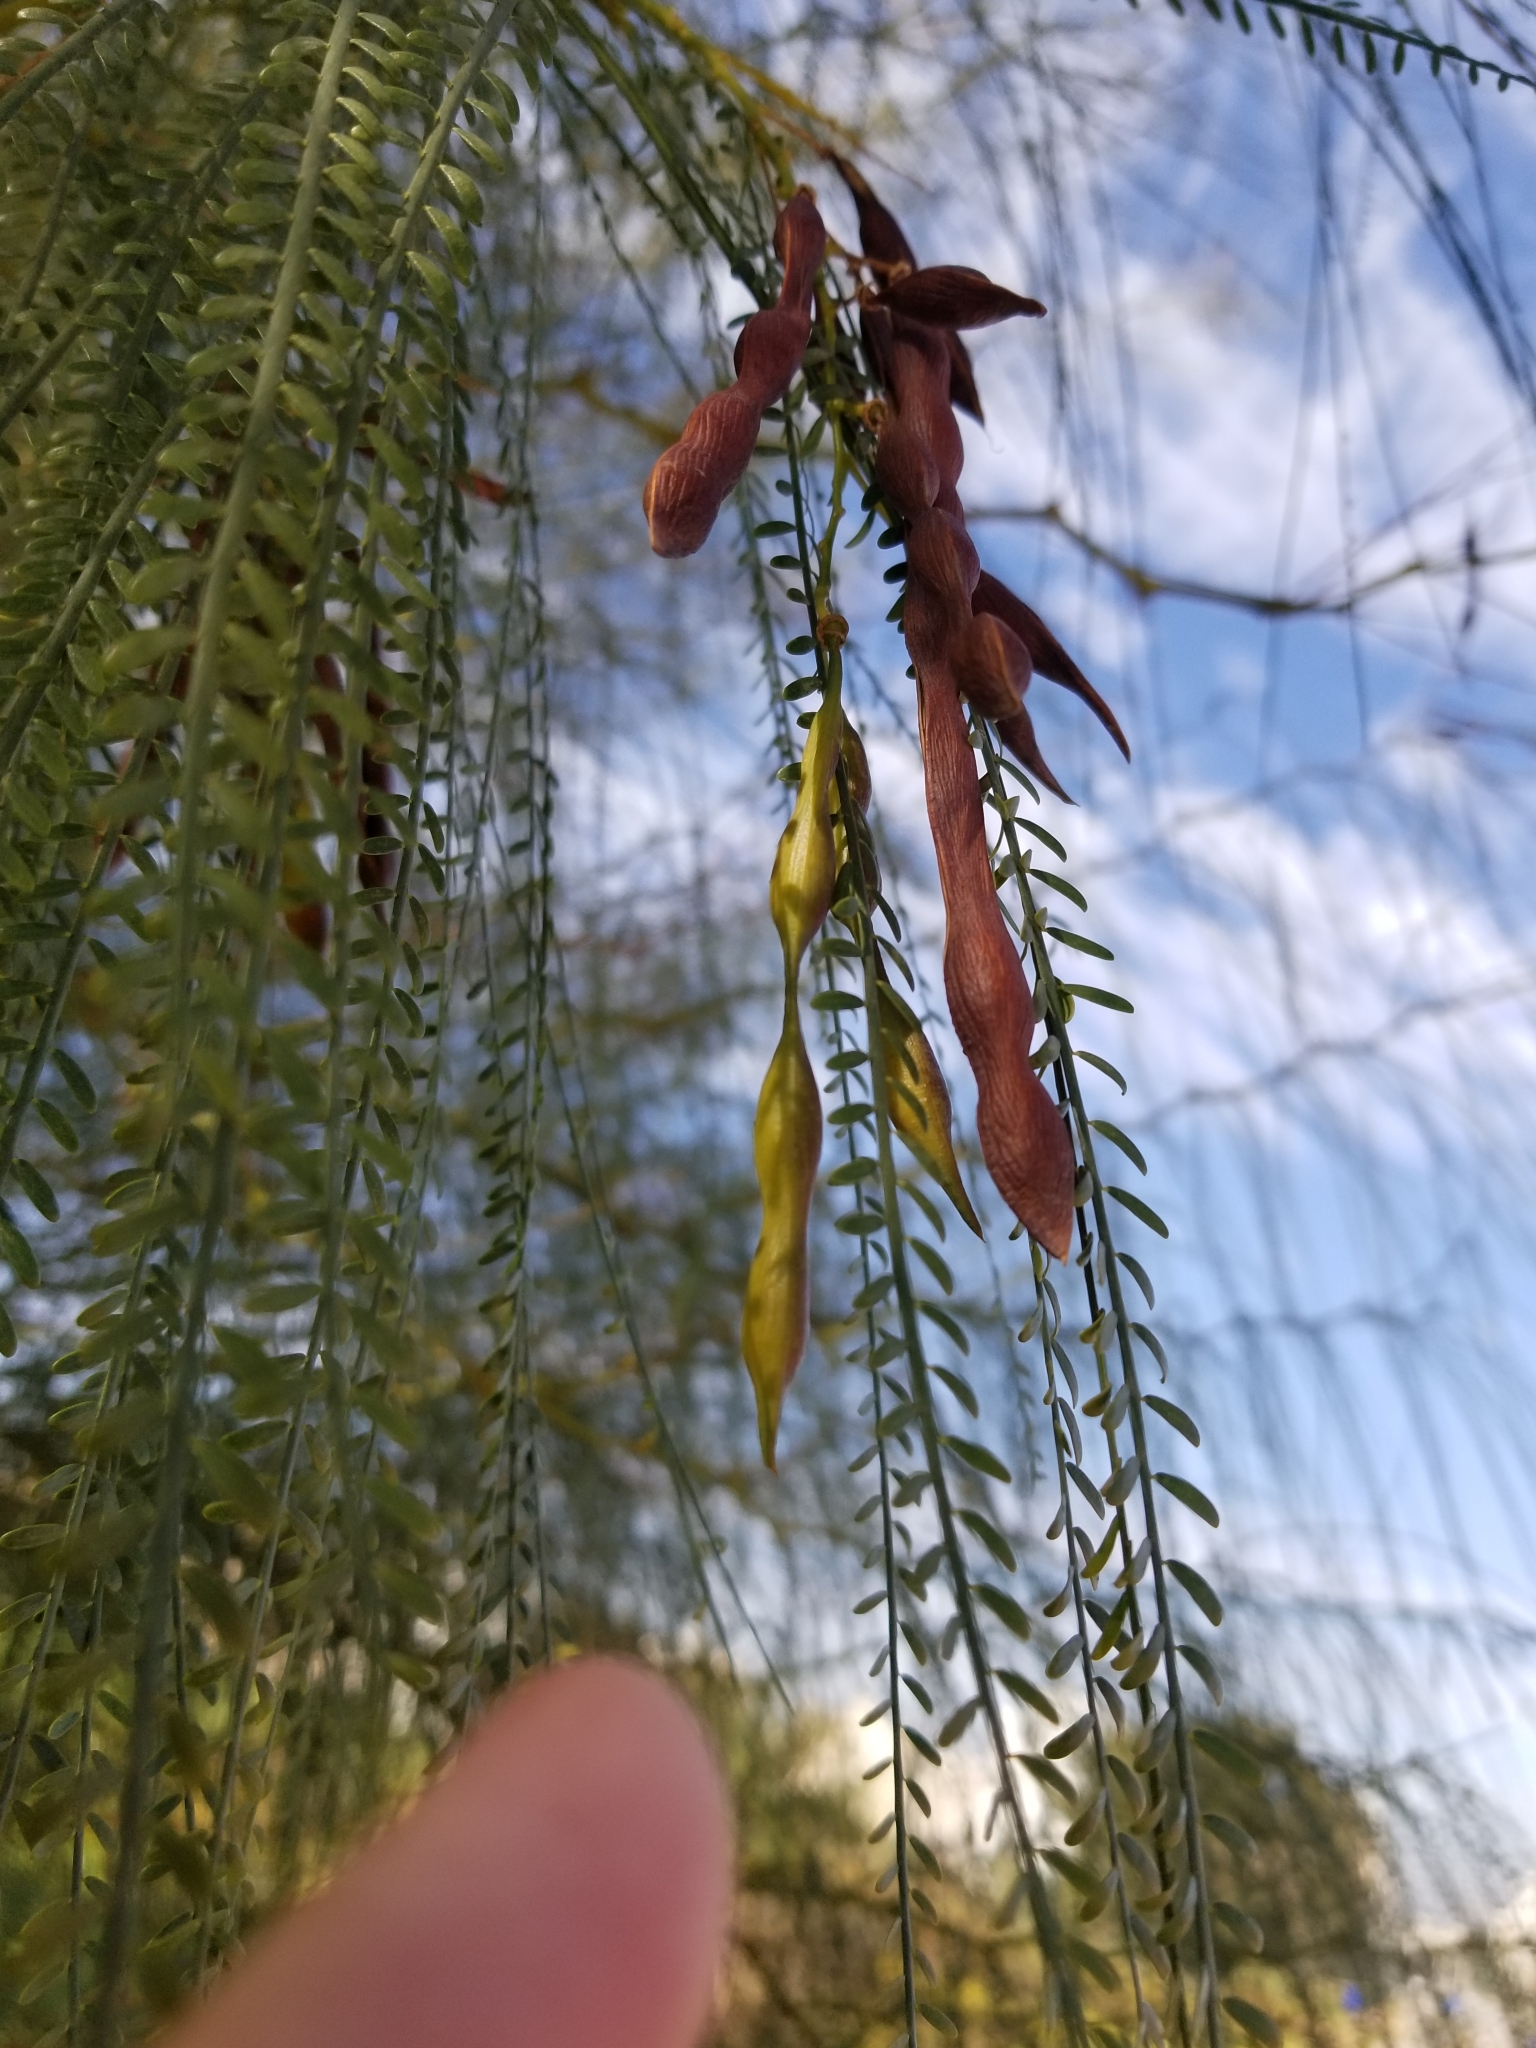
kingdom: Plantae
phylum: Tracheophyta
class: Magnoliopsida
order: Fabales
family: Fabaceae
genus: Parkinsonia
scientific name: Parkinsonia aculeata
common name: Jerusalem thorn
